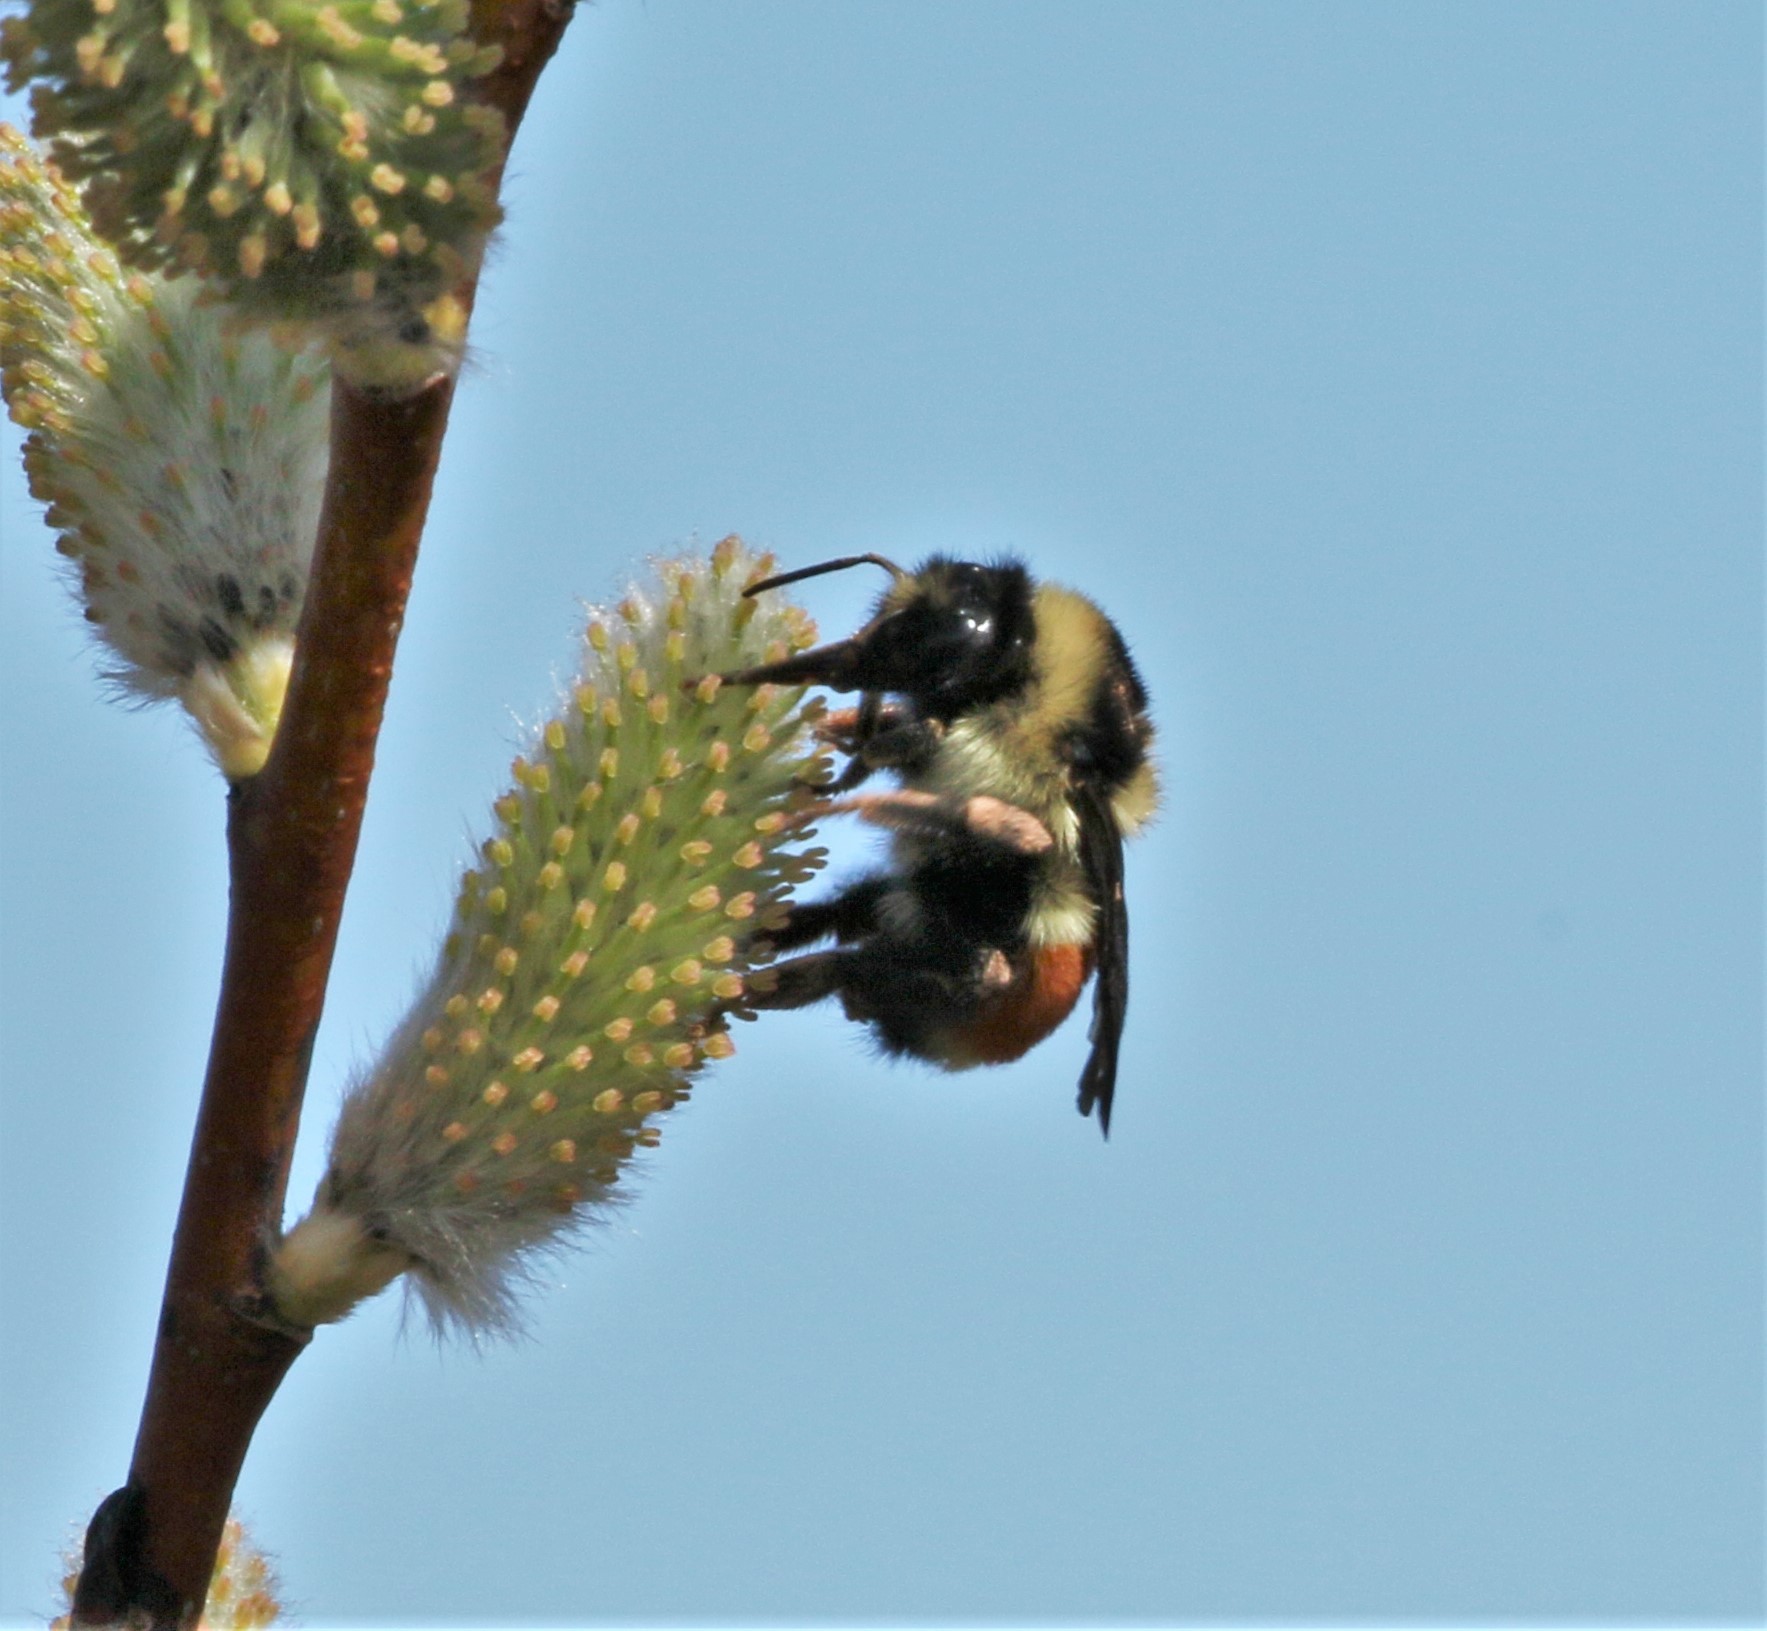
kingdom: Animalia
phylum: Arthropoda
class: Insecta
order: Hymenoptera
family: Apidae
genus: Bombus
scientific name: Bombus ternarius
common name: Tri-colored bumble bee
